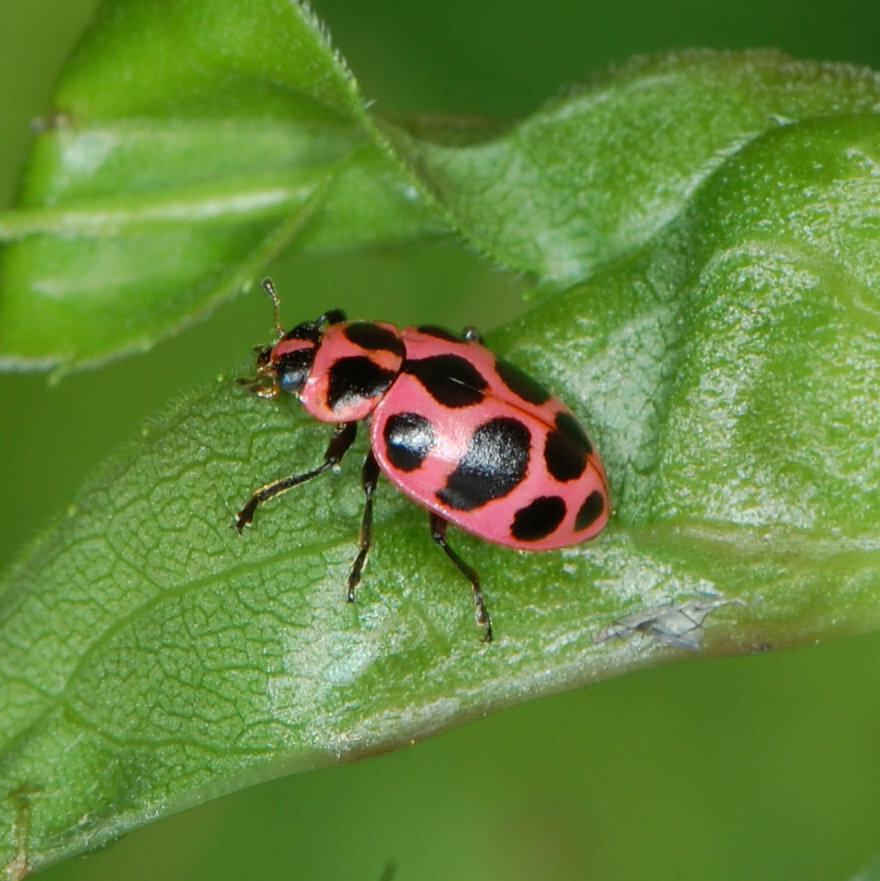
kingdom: Animalia
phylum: Arthropoda
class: Insecta
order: Coleoptera
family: Coccinellidae
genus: Coleomegilla
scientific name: Coleomegilla maculata
